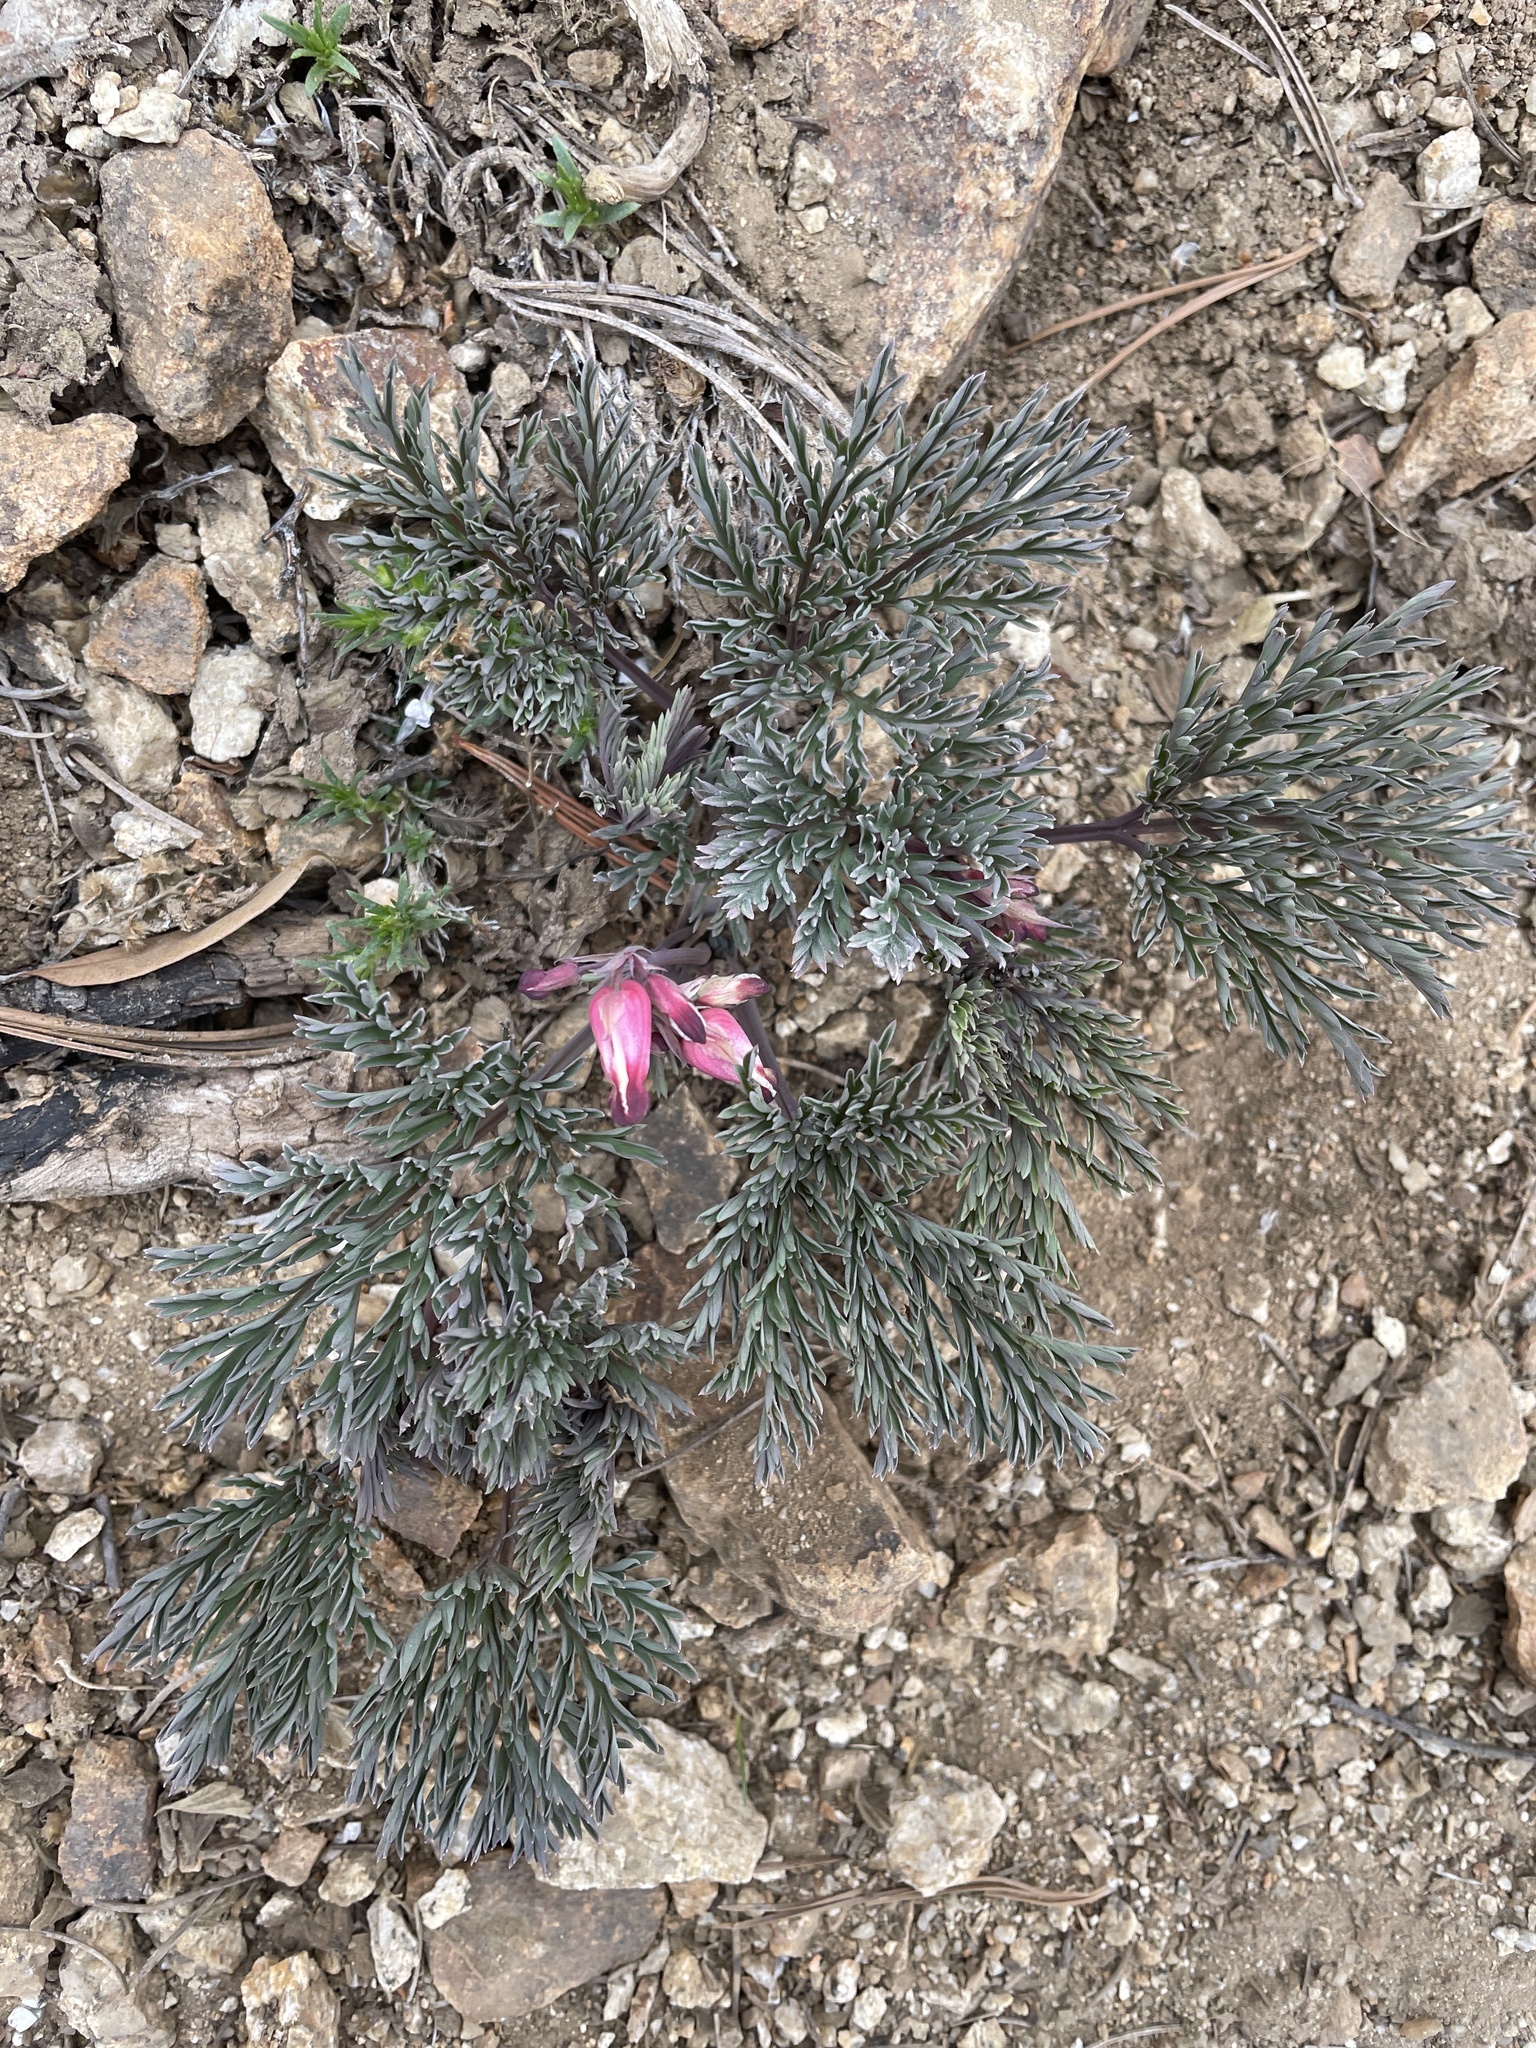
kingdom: Plantae
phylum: Tracheophyta
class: Magnoliopsida
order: Ranunculales
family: Papaveraceae
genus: Dicentra
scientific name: Dicentra formosa
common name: Bleeding-heart
